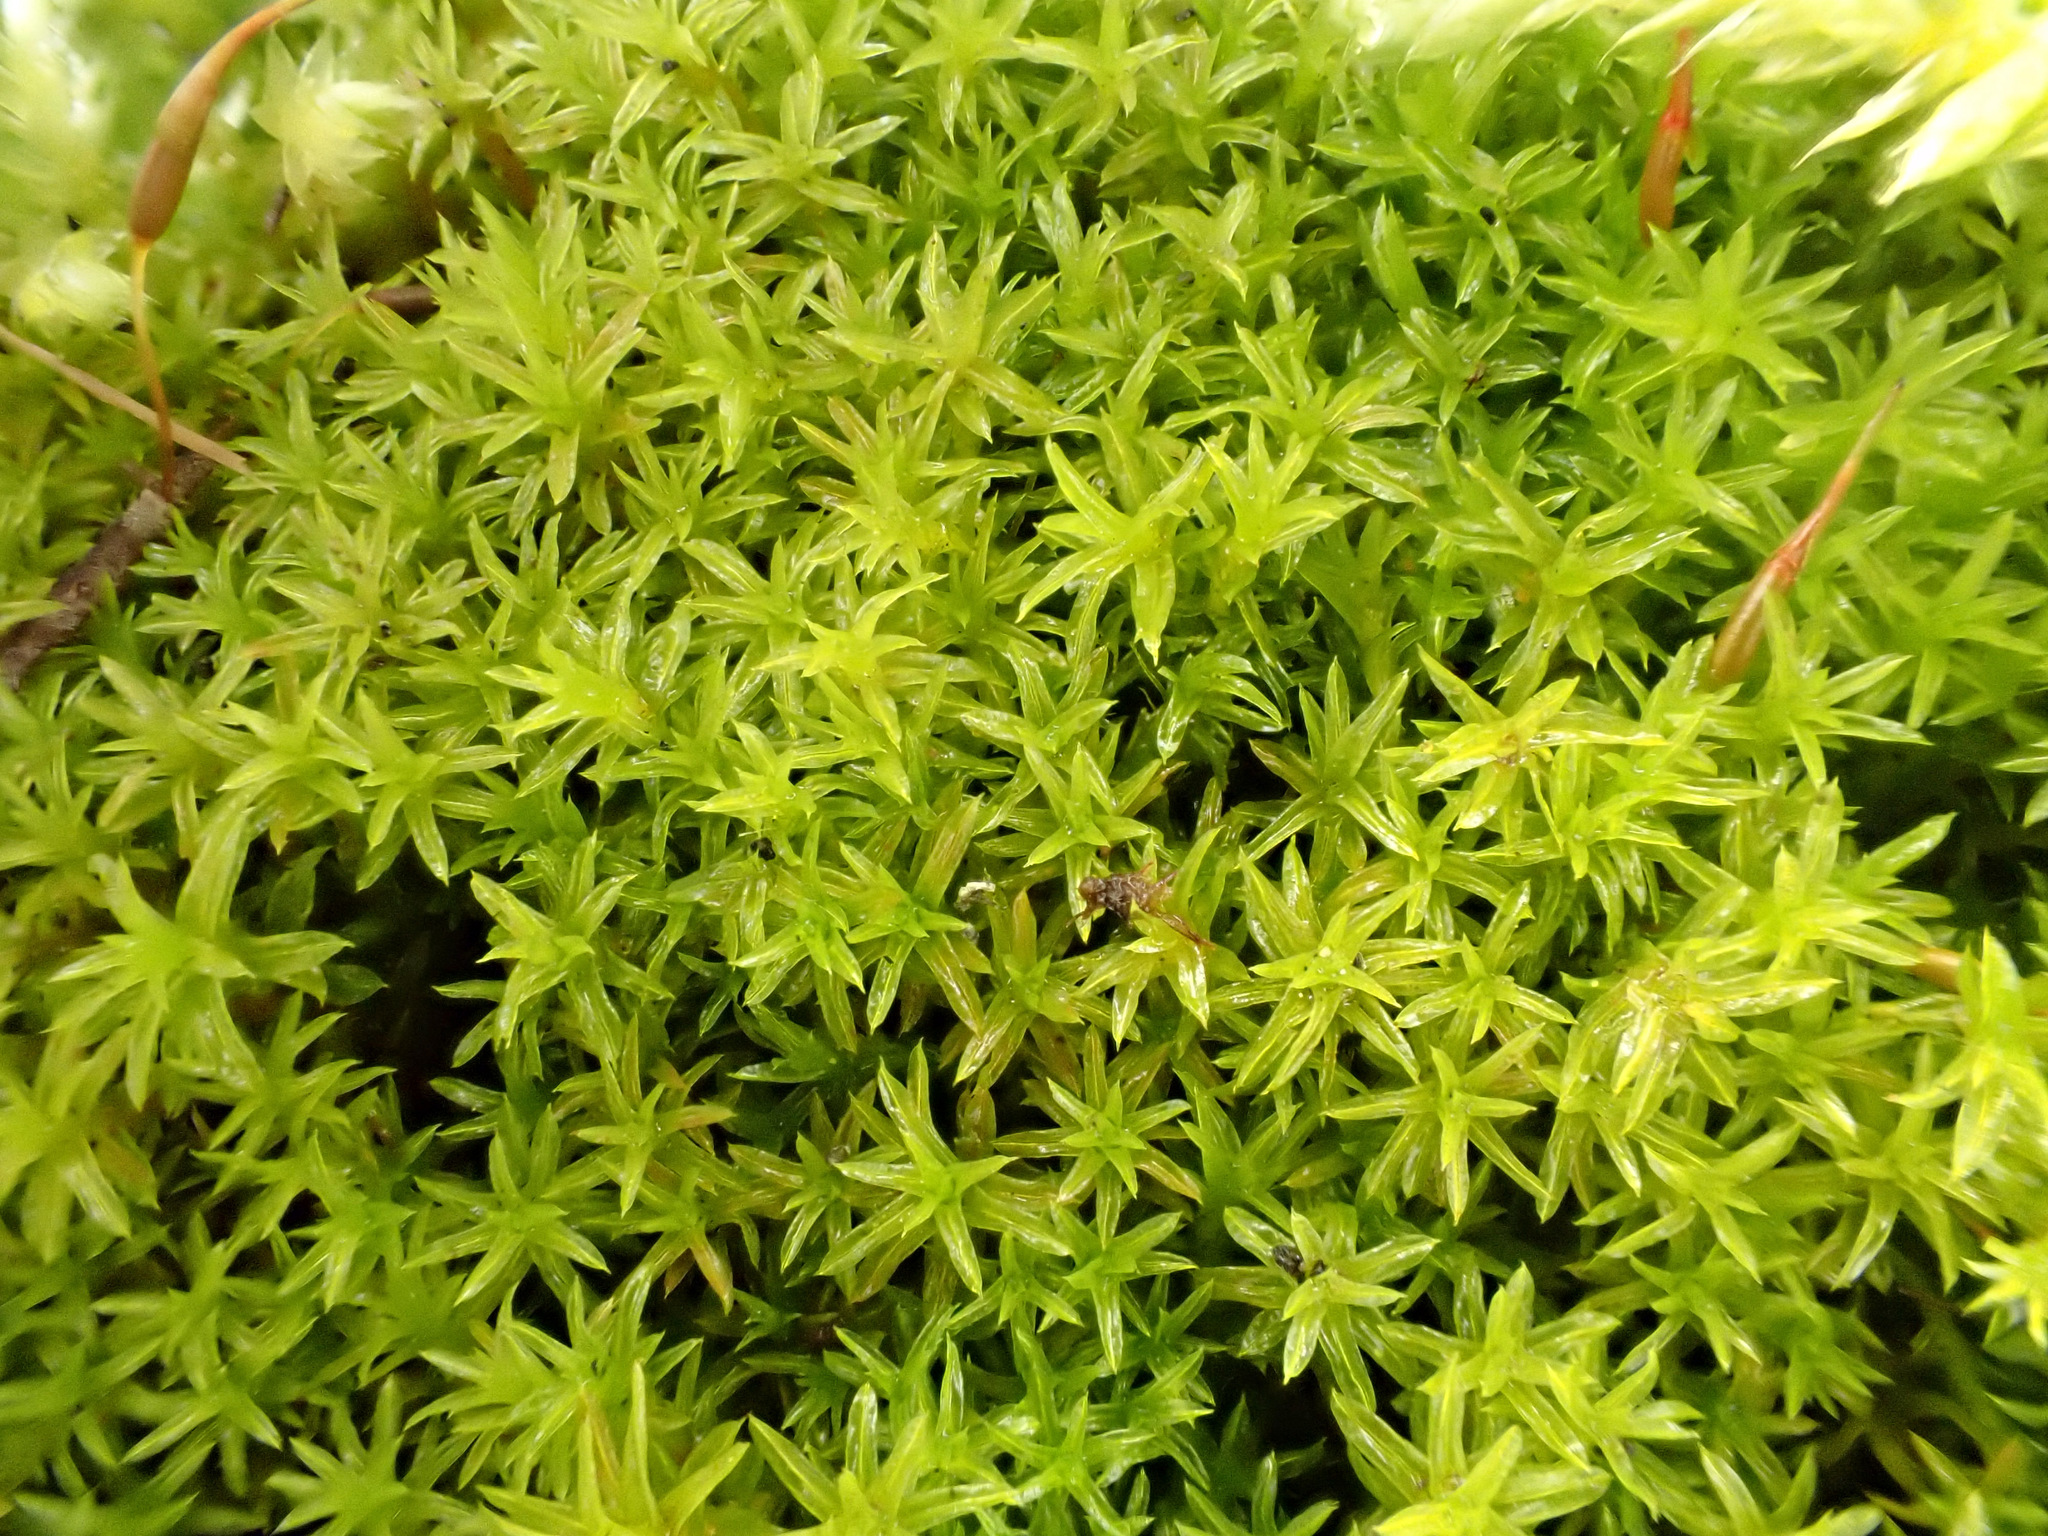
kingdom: Plantae
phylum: Bryophyta
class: Bryopsida
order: Pottiales
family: Pottiaceae
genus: Barbula
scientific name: Barbula unguiculata
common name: Prickly beard moss
